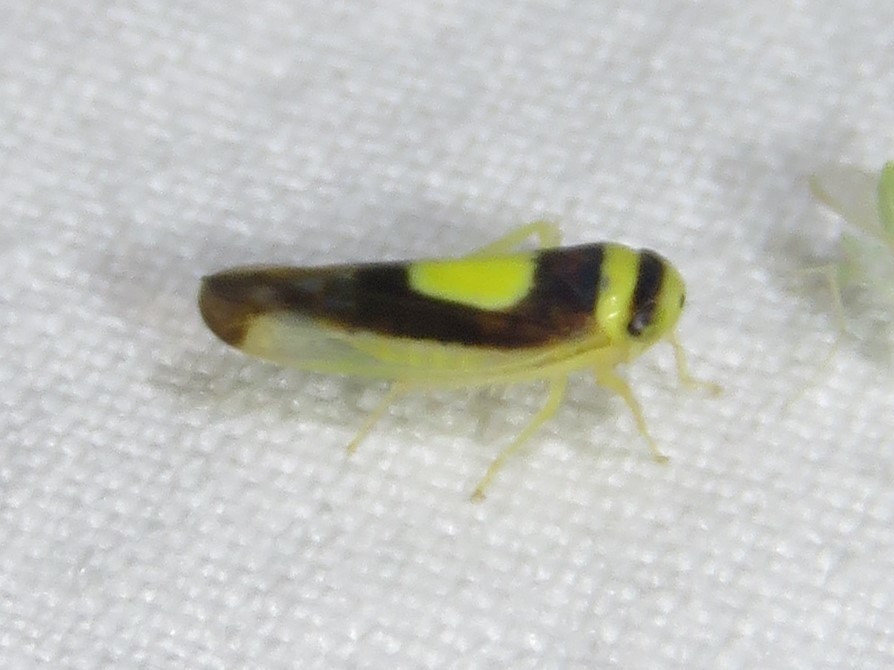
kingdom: Animalia
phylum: Arthropoda
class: Insecta
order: Hemiptera
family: Cicadellidae
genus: Colladonus
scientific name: Colladonus clitellarius
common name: The saddleback leafhopper
